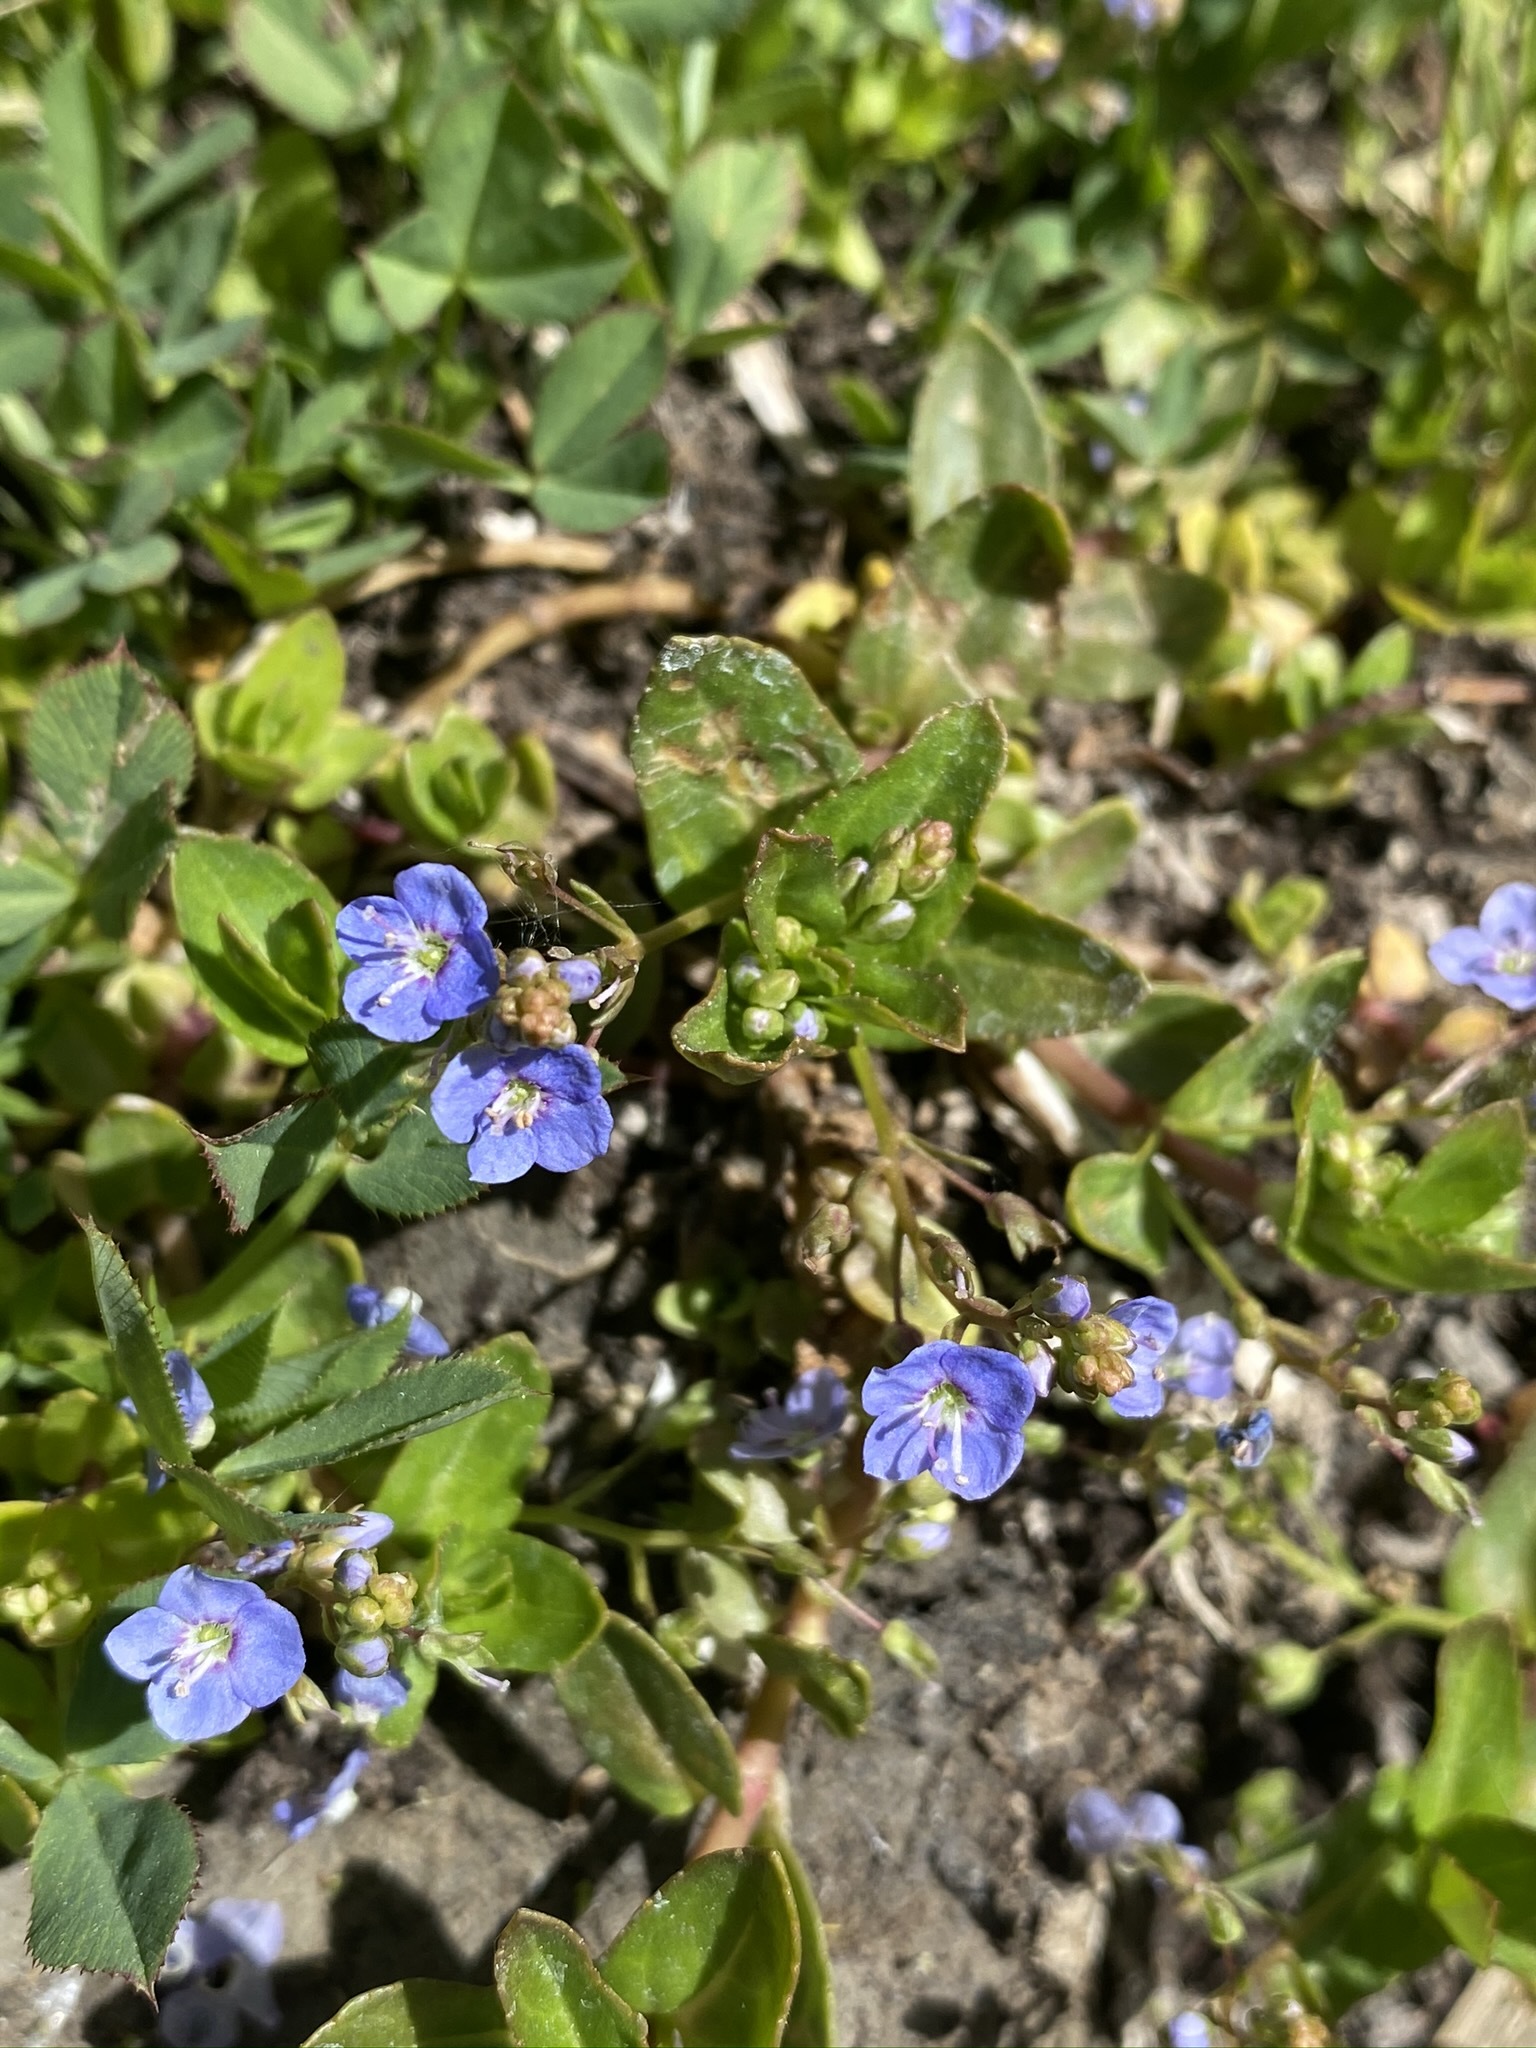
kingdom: Plantae
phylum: Tracheophyta
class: Magnoliopsida
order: Lamiales
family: Plantaginaceae
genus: Veronica
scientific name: Veronica americana
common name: American brooklime
